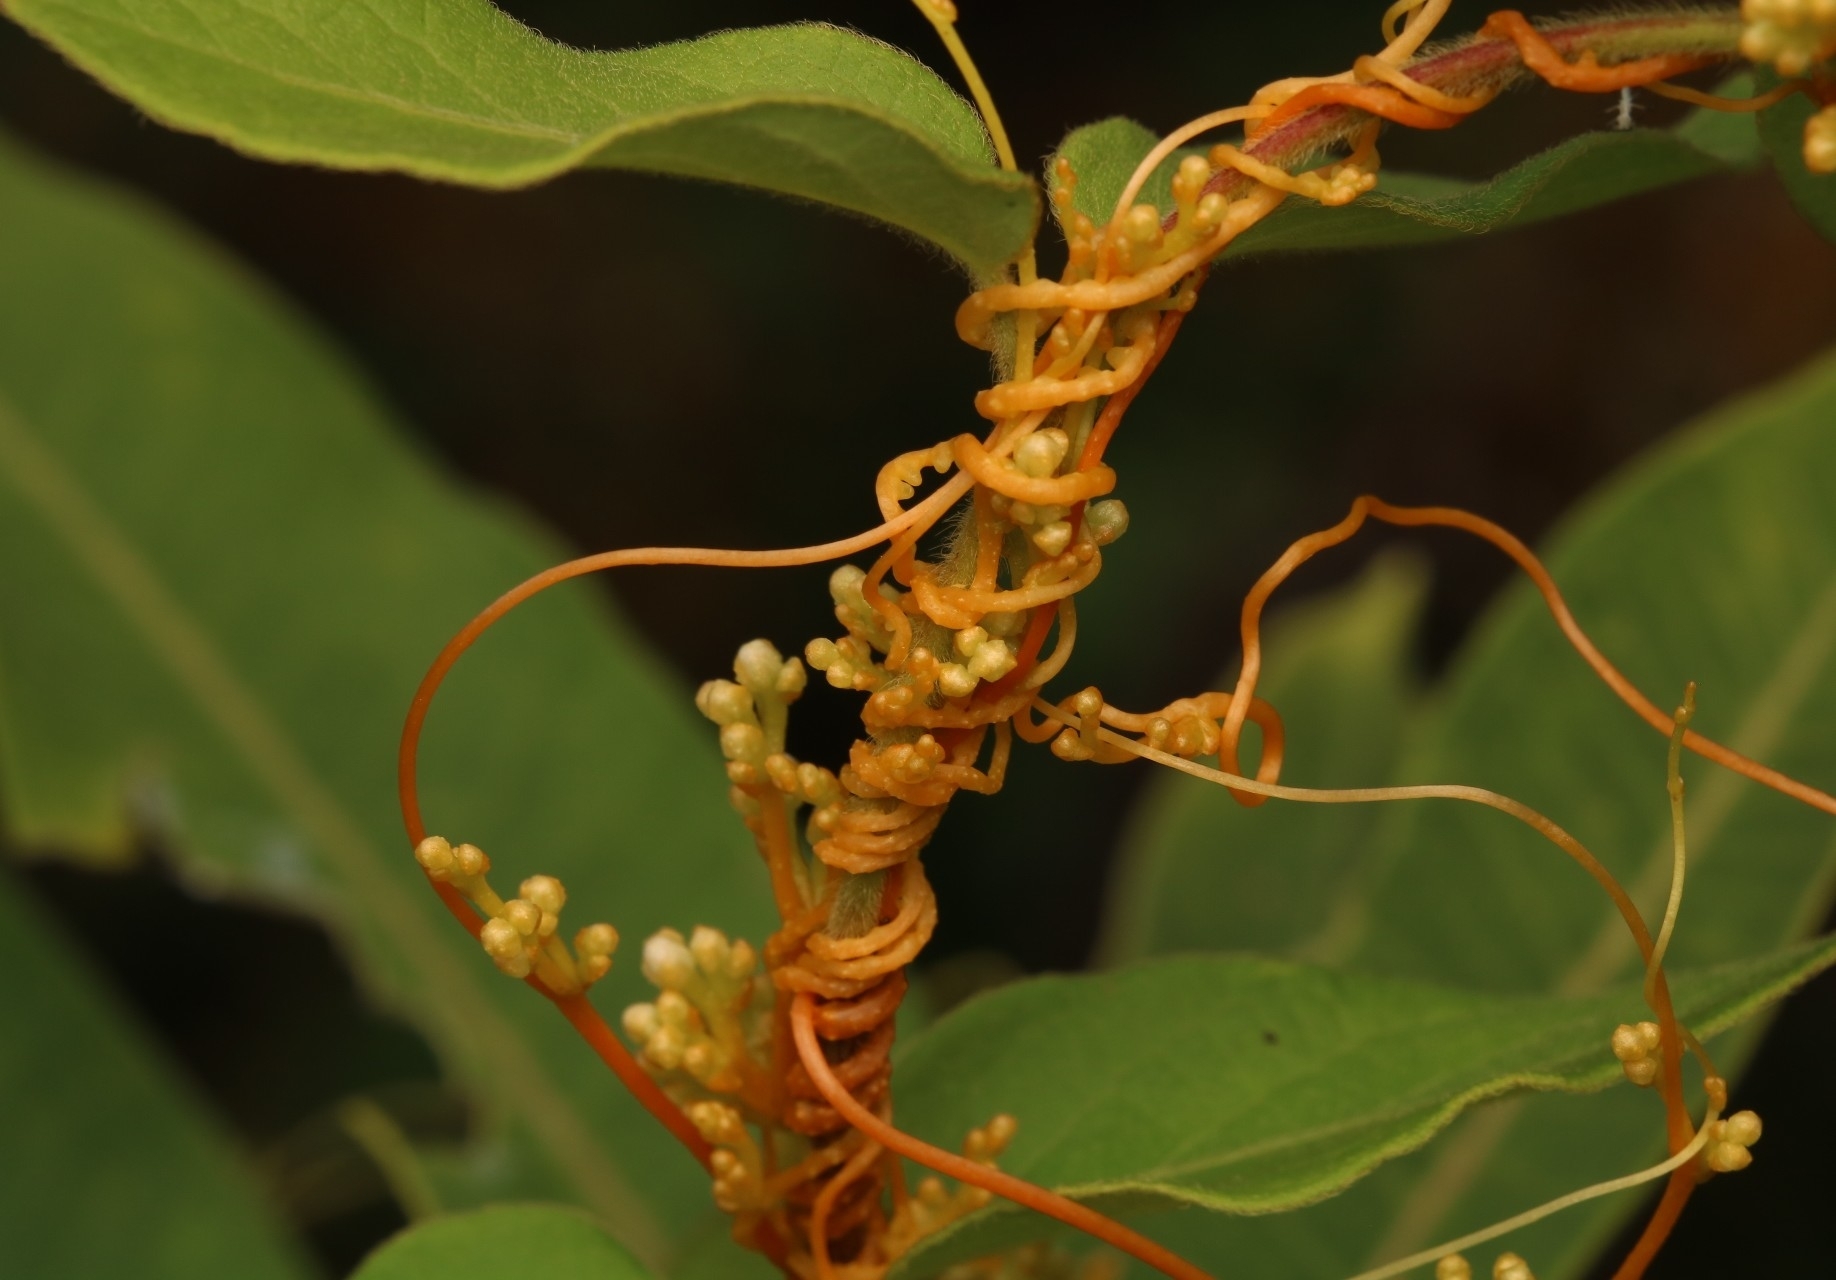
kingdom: Plantae
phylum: Tracheophyta
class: Magnoliopsida
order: Solanales
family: Convolvulaceae
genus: Cuscuta
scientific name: Cuscuta gronovii
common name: Common dodder
